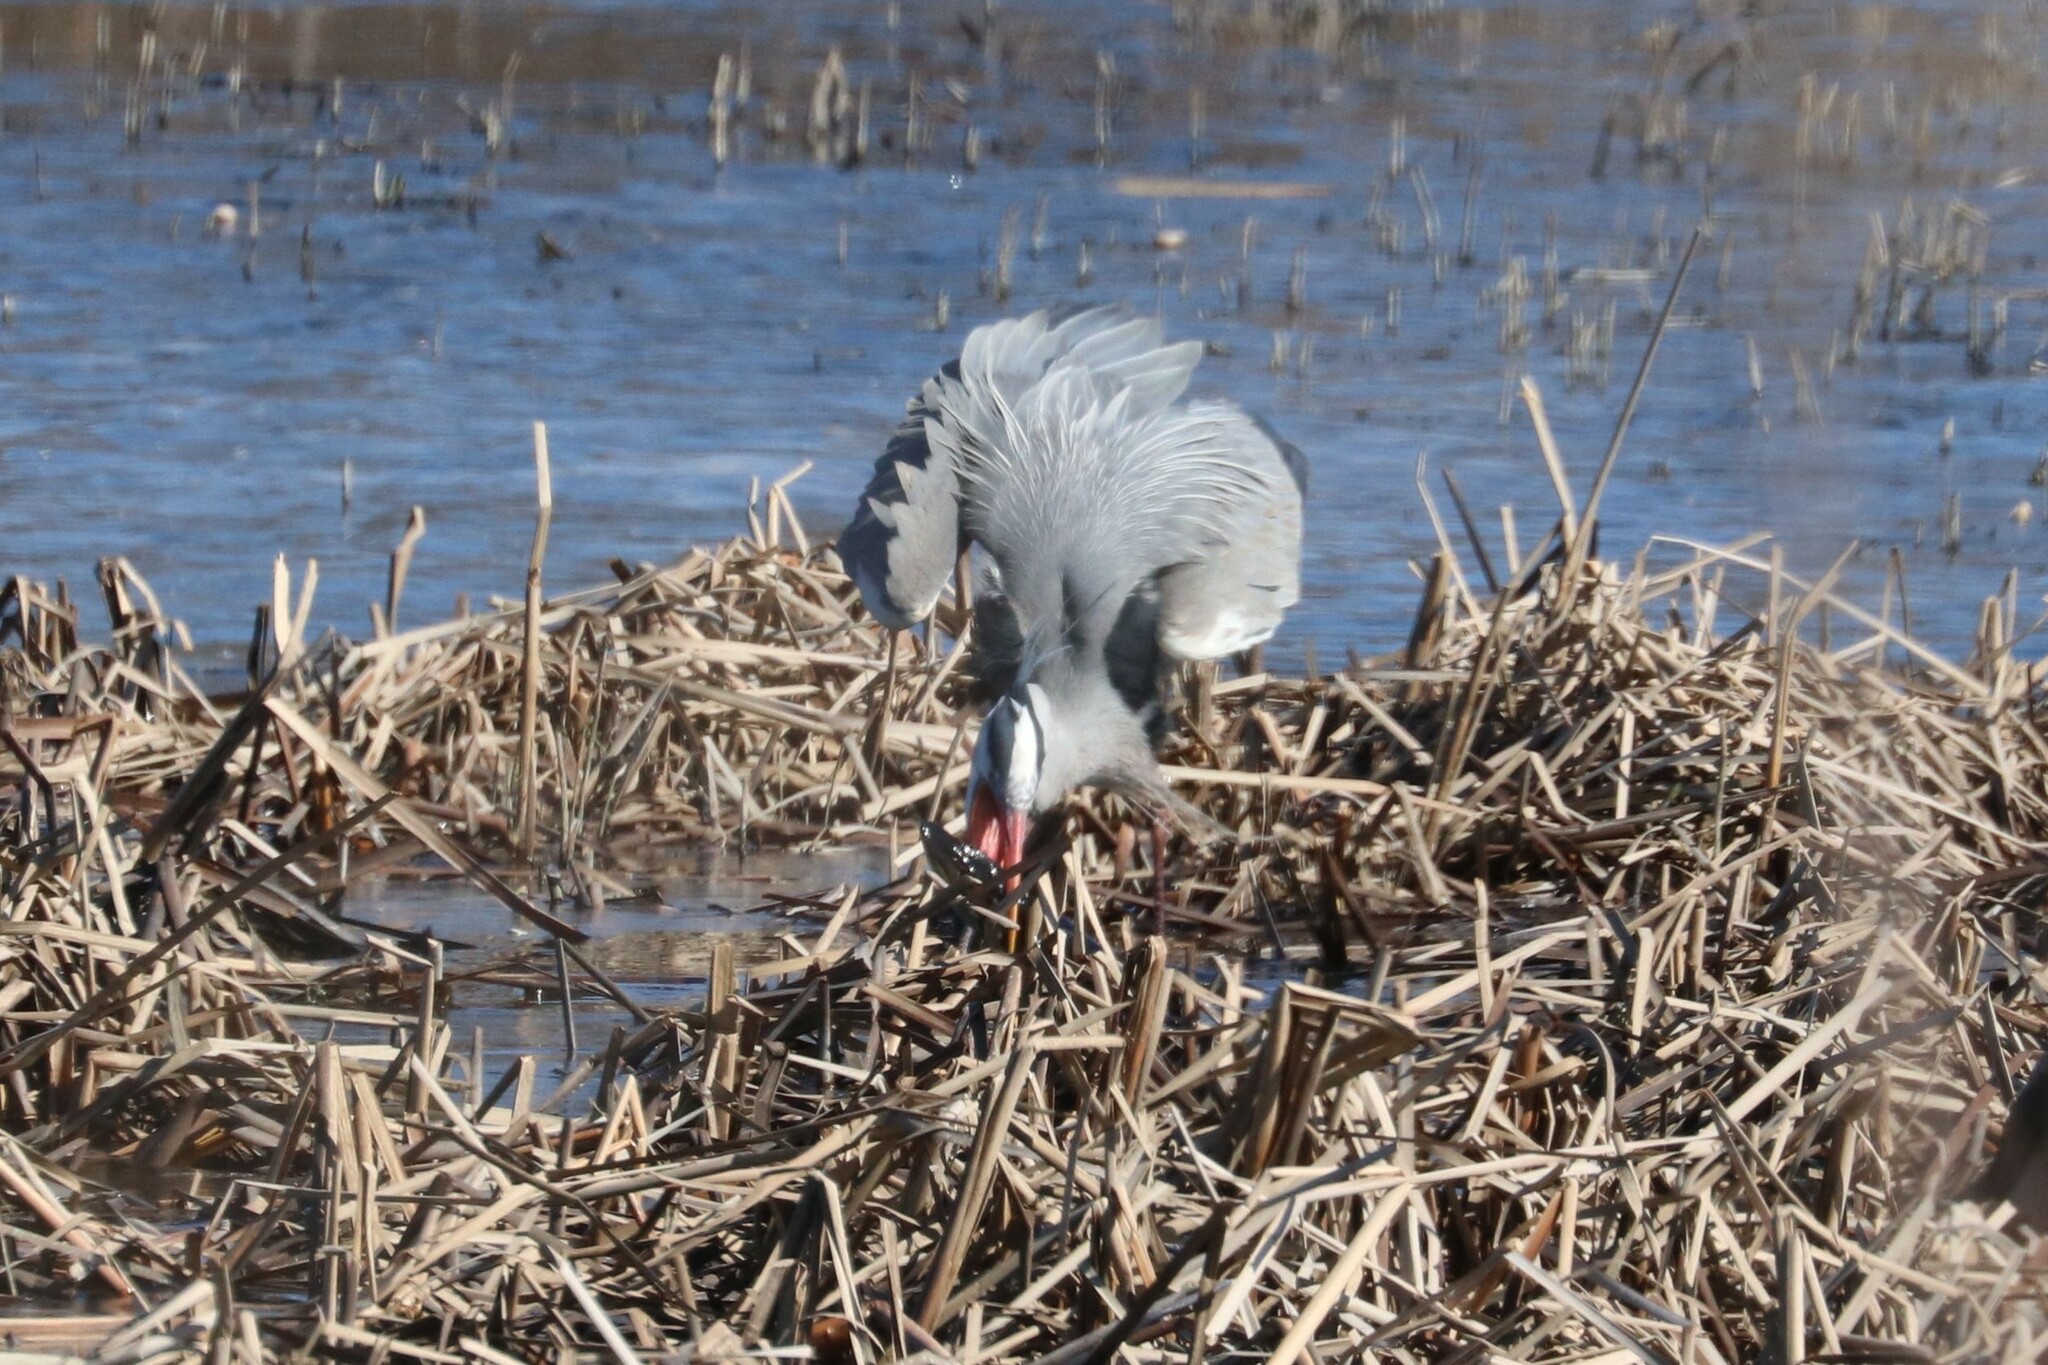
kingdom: Animalia
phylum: Chordata
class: Aves
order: Pelecaniformes
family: Ardeidae
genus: Ardea
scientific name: Ardea cinerea
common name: Grey heron
